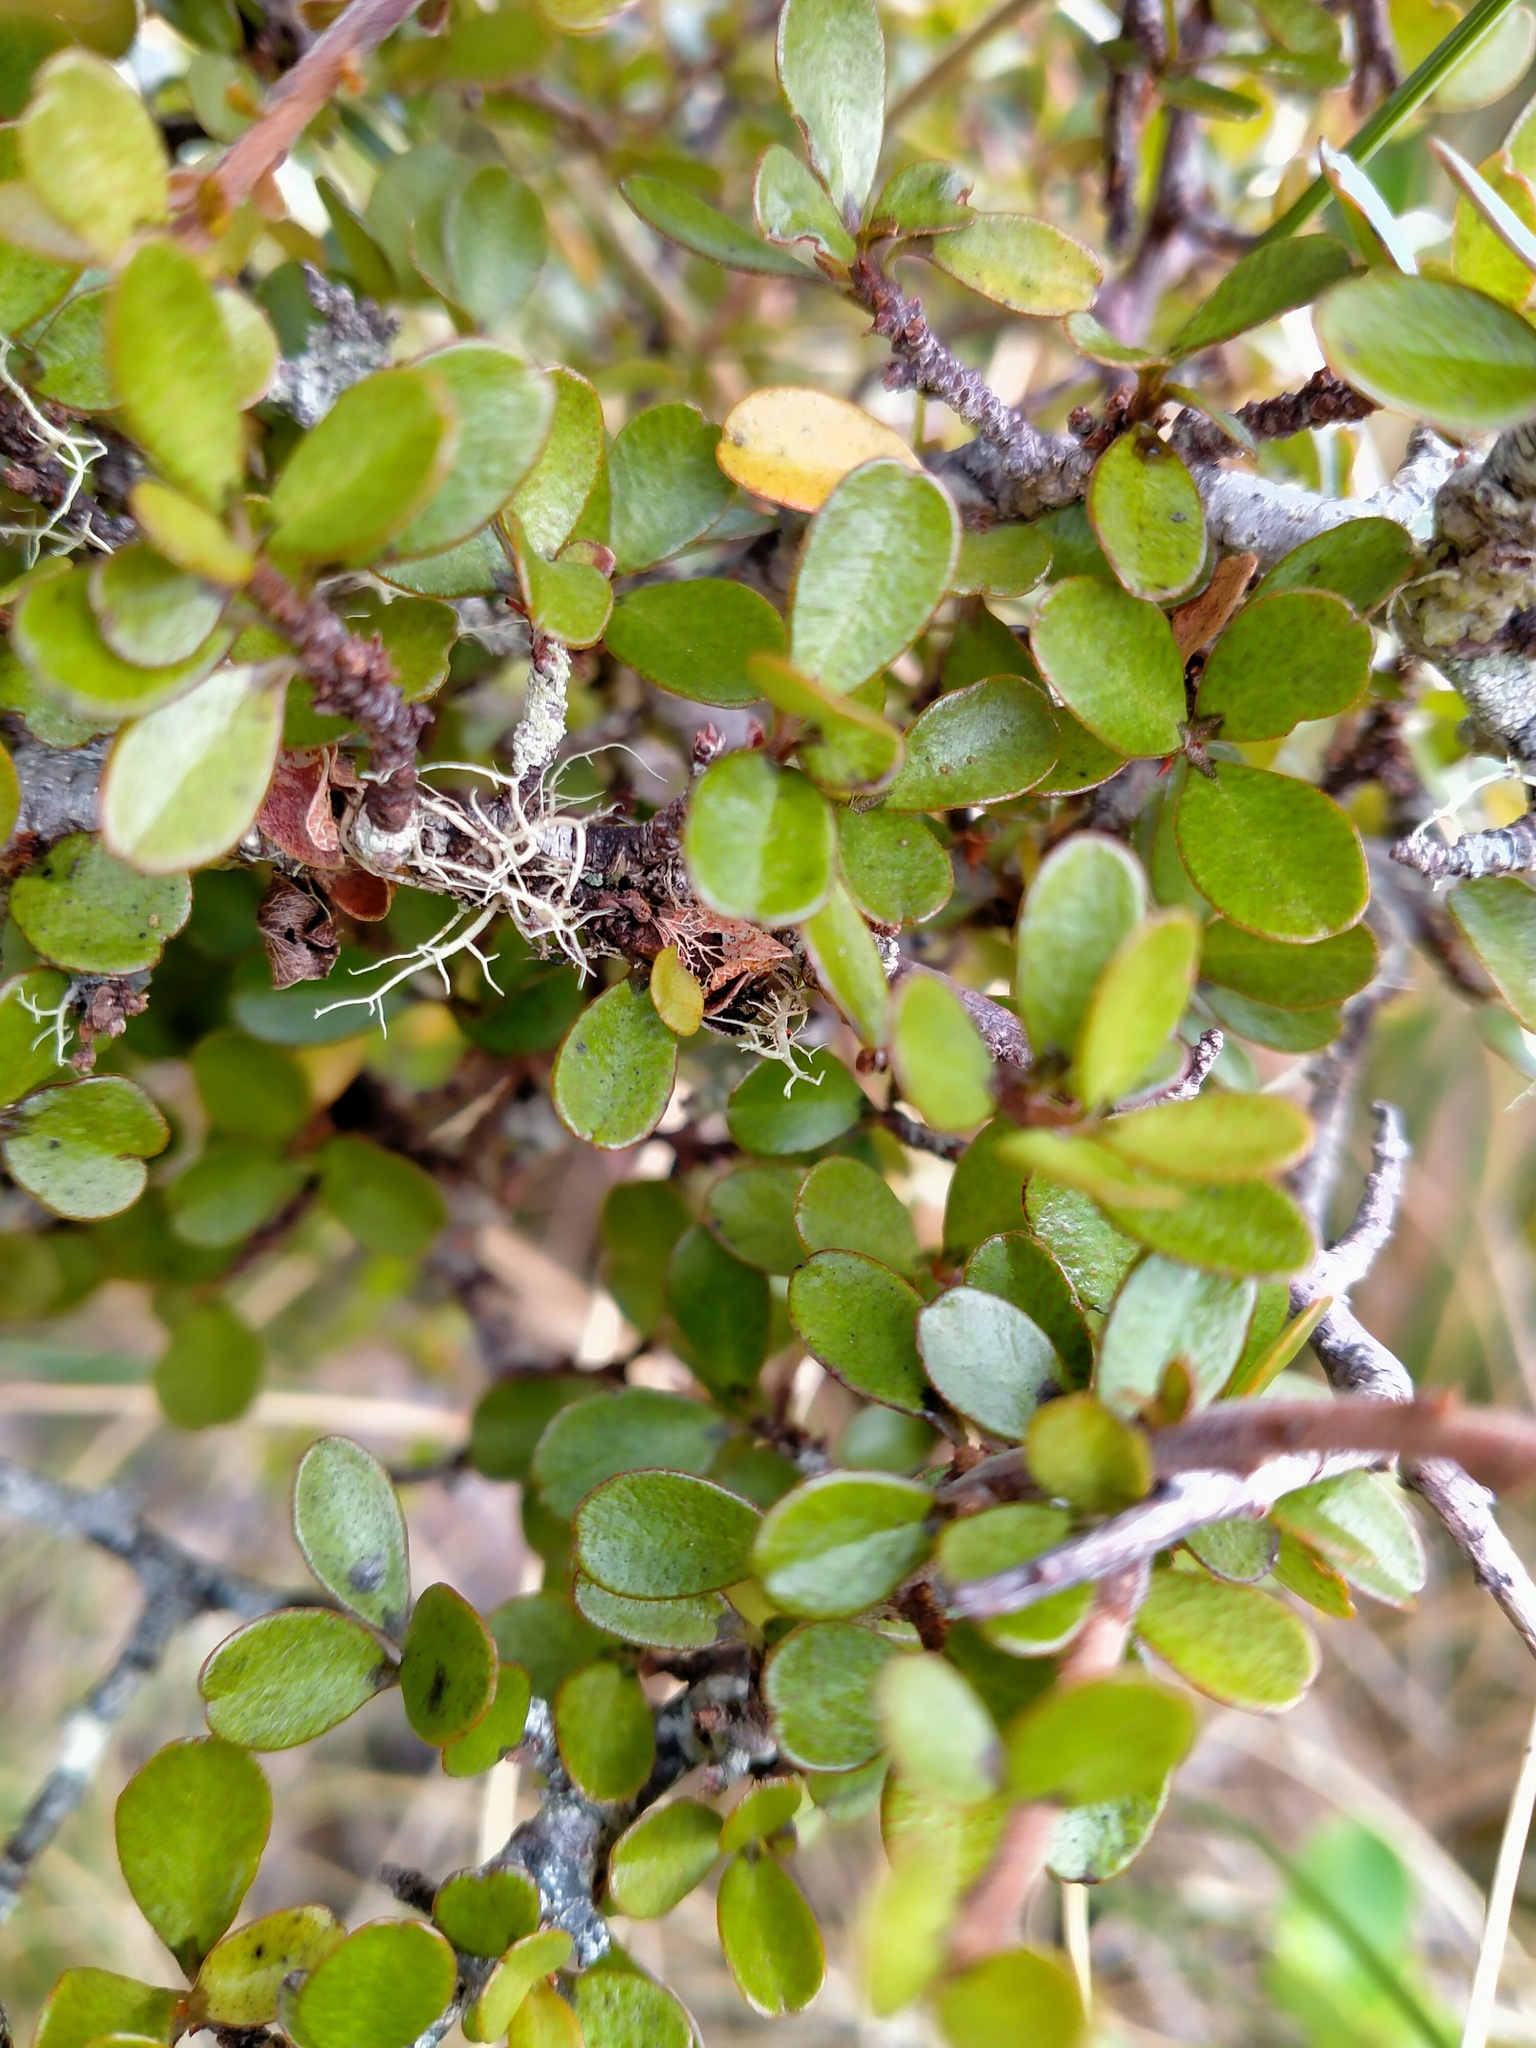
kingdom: Plantae
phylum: Tracheophyta
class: Magnoliopsida
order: Ericales
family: Primulaceae
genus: Myrsine
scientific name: Myrsine divaricata
